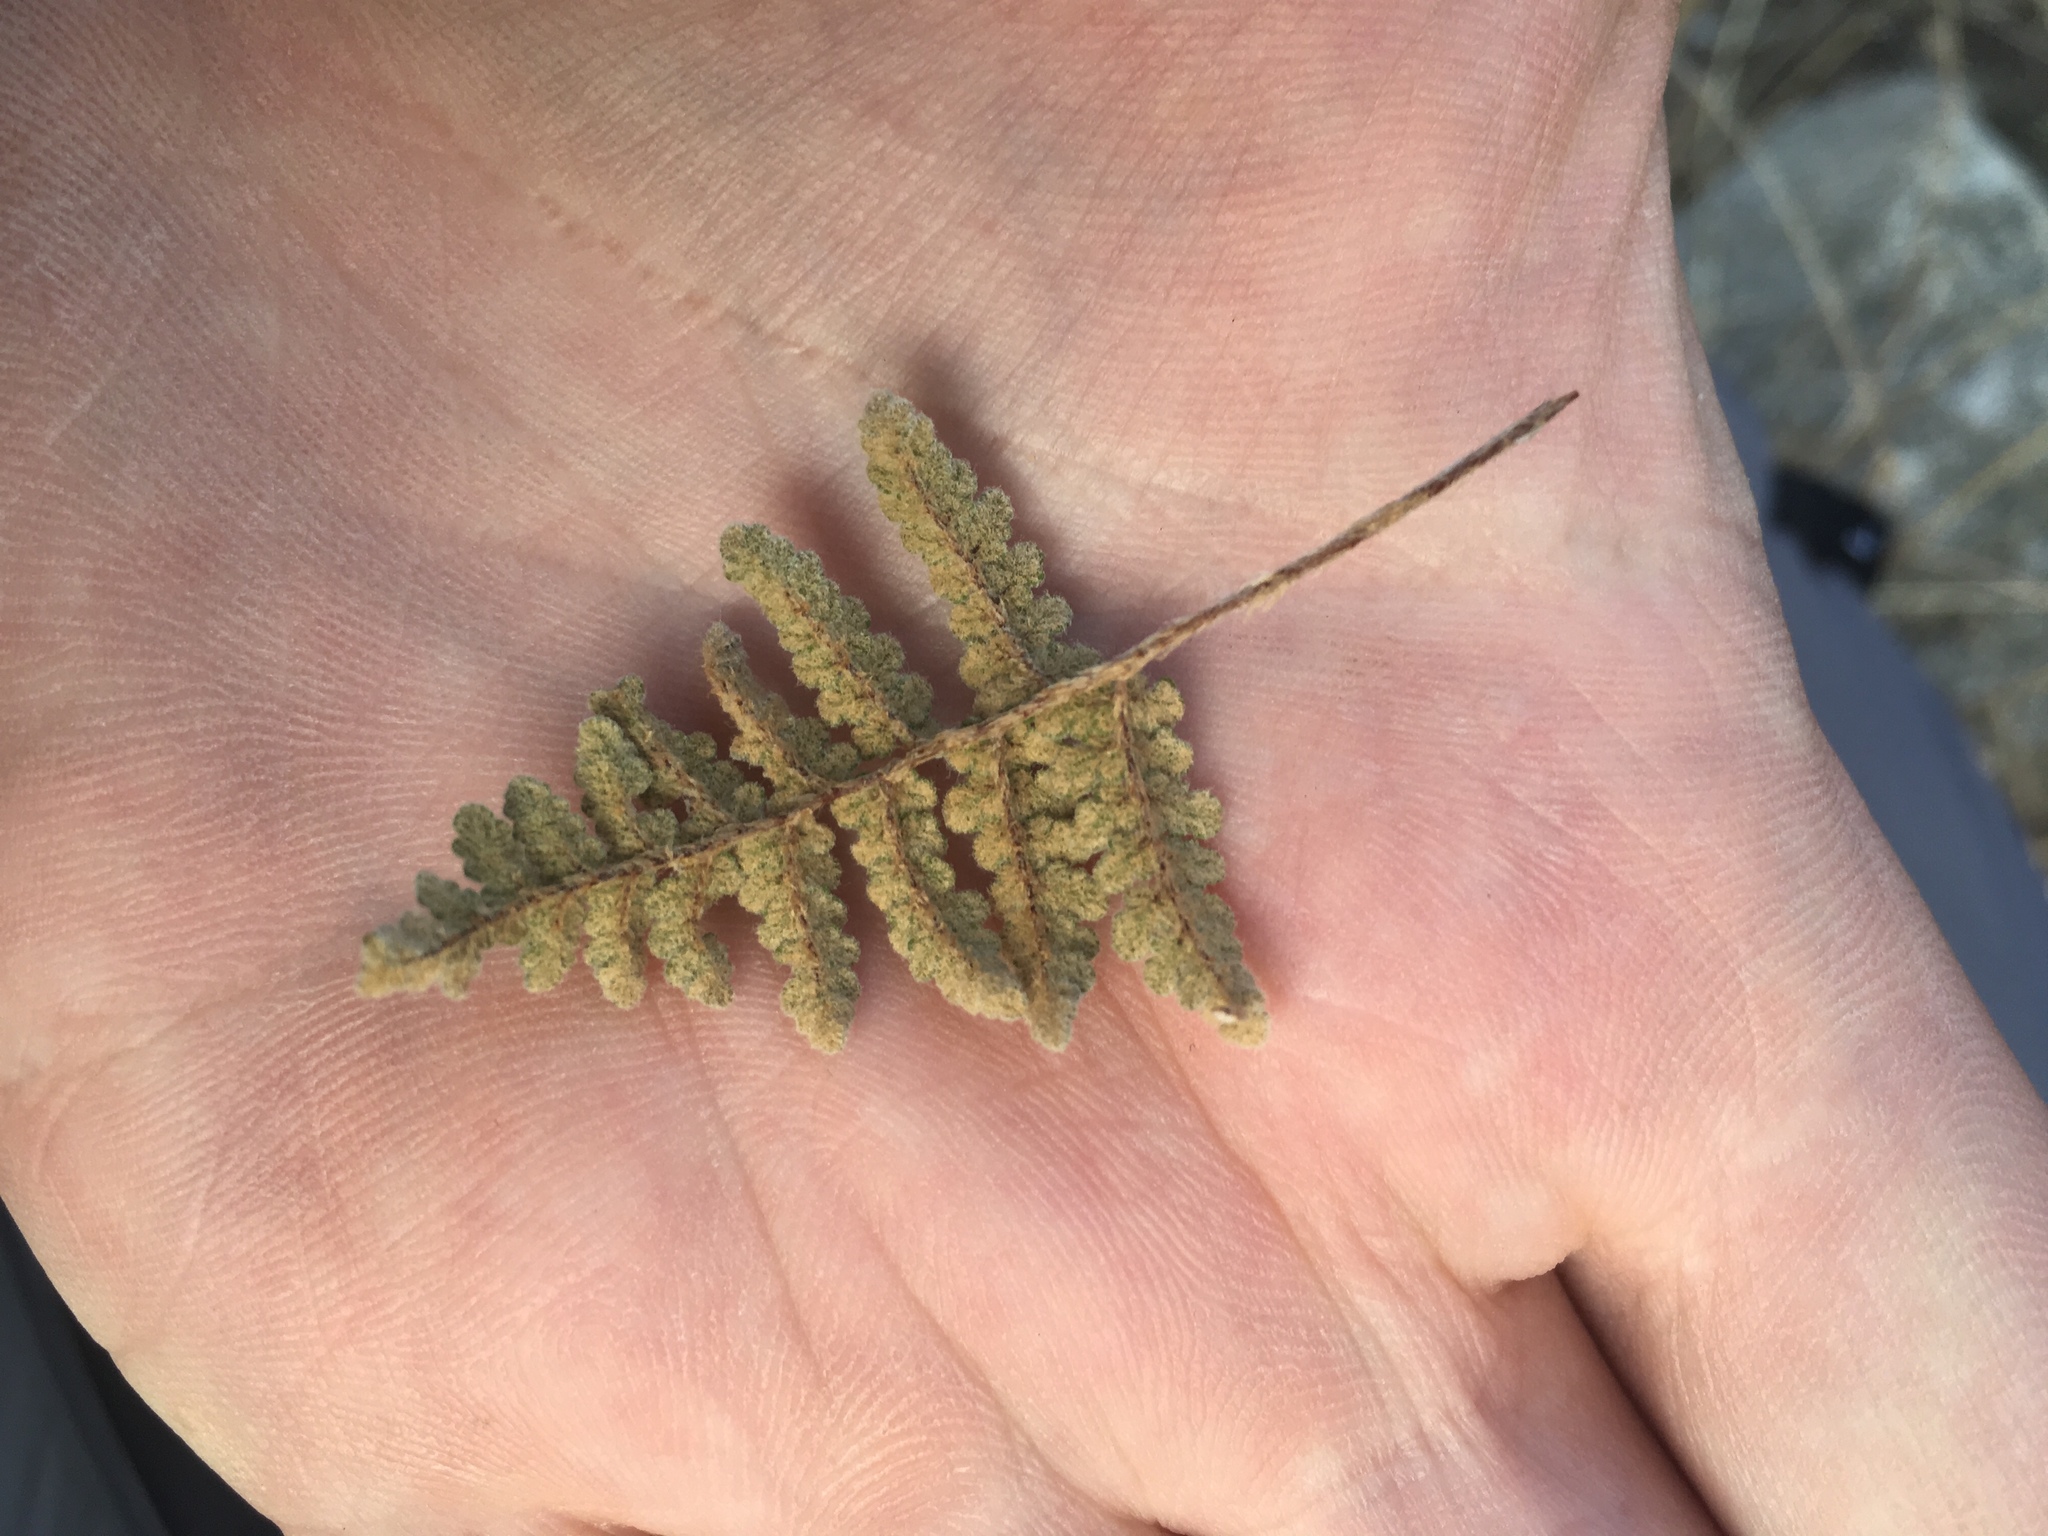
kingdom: Plantae
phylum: Tracheophyta
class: Polypodiopsida
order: Polypodiales
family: Pteridaceae
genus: Myriopteris
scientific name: Myriopteris rufa
